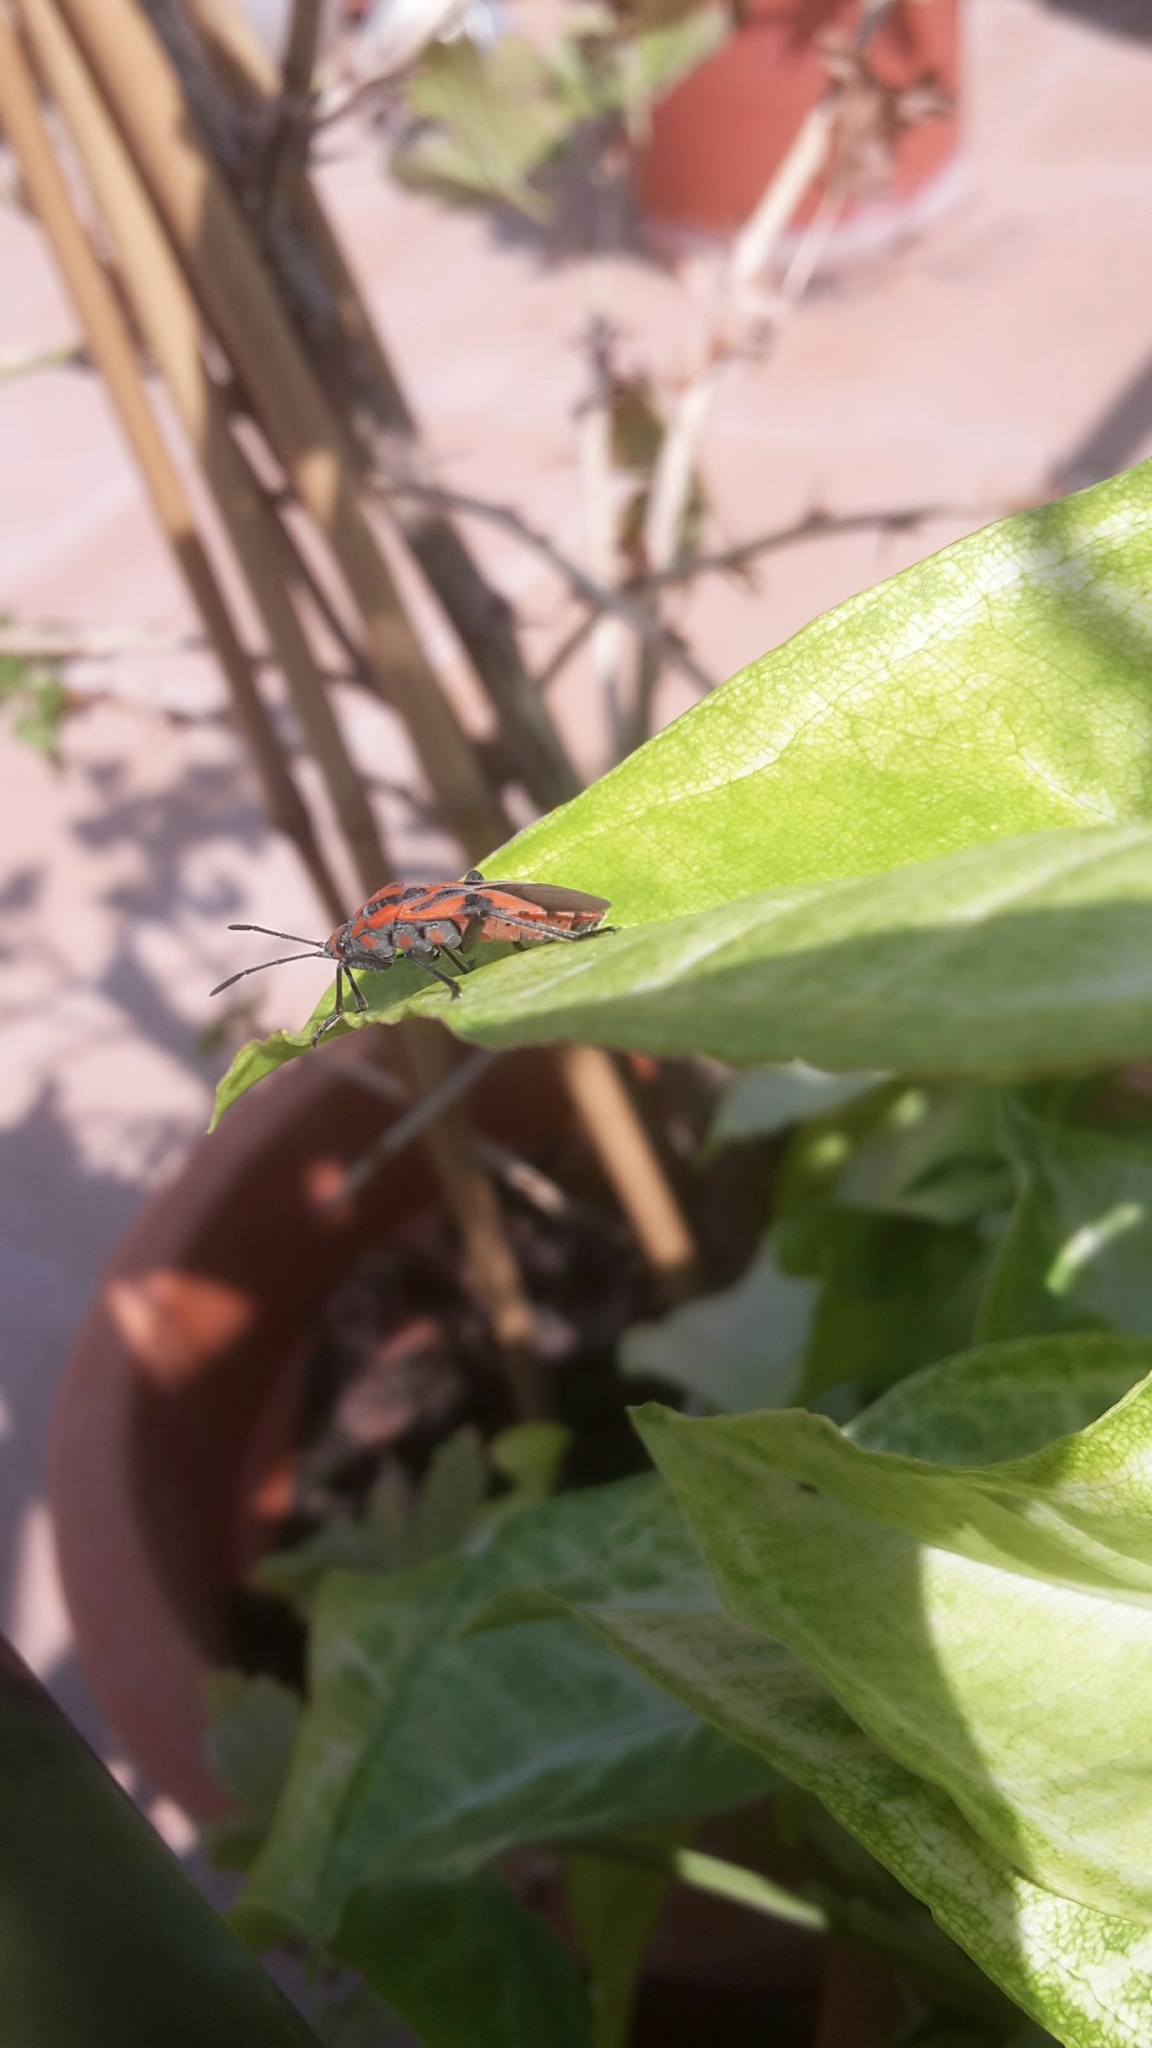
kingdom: Animalia
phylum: Arthropoda
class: Insecta
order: Hemiptera
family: Lygaeidae
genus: Spilostethus
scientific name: Spilostethus furcula
